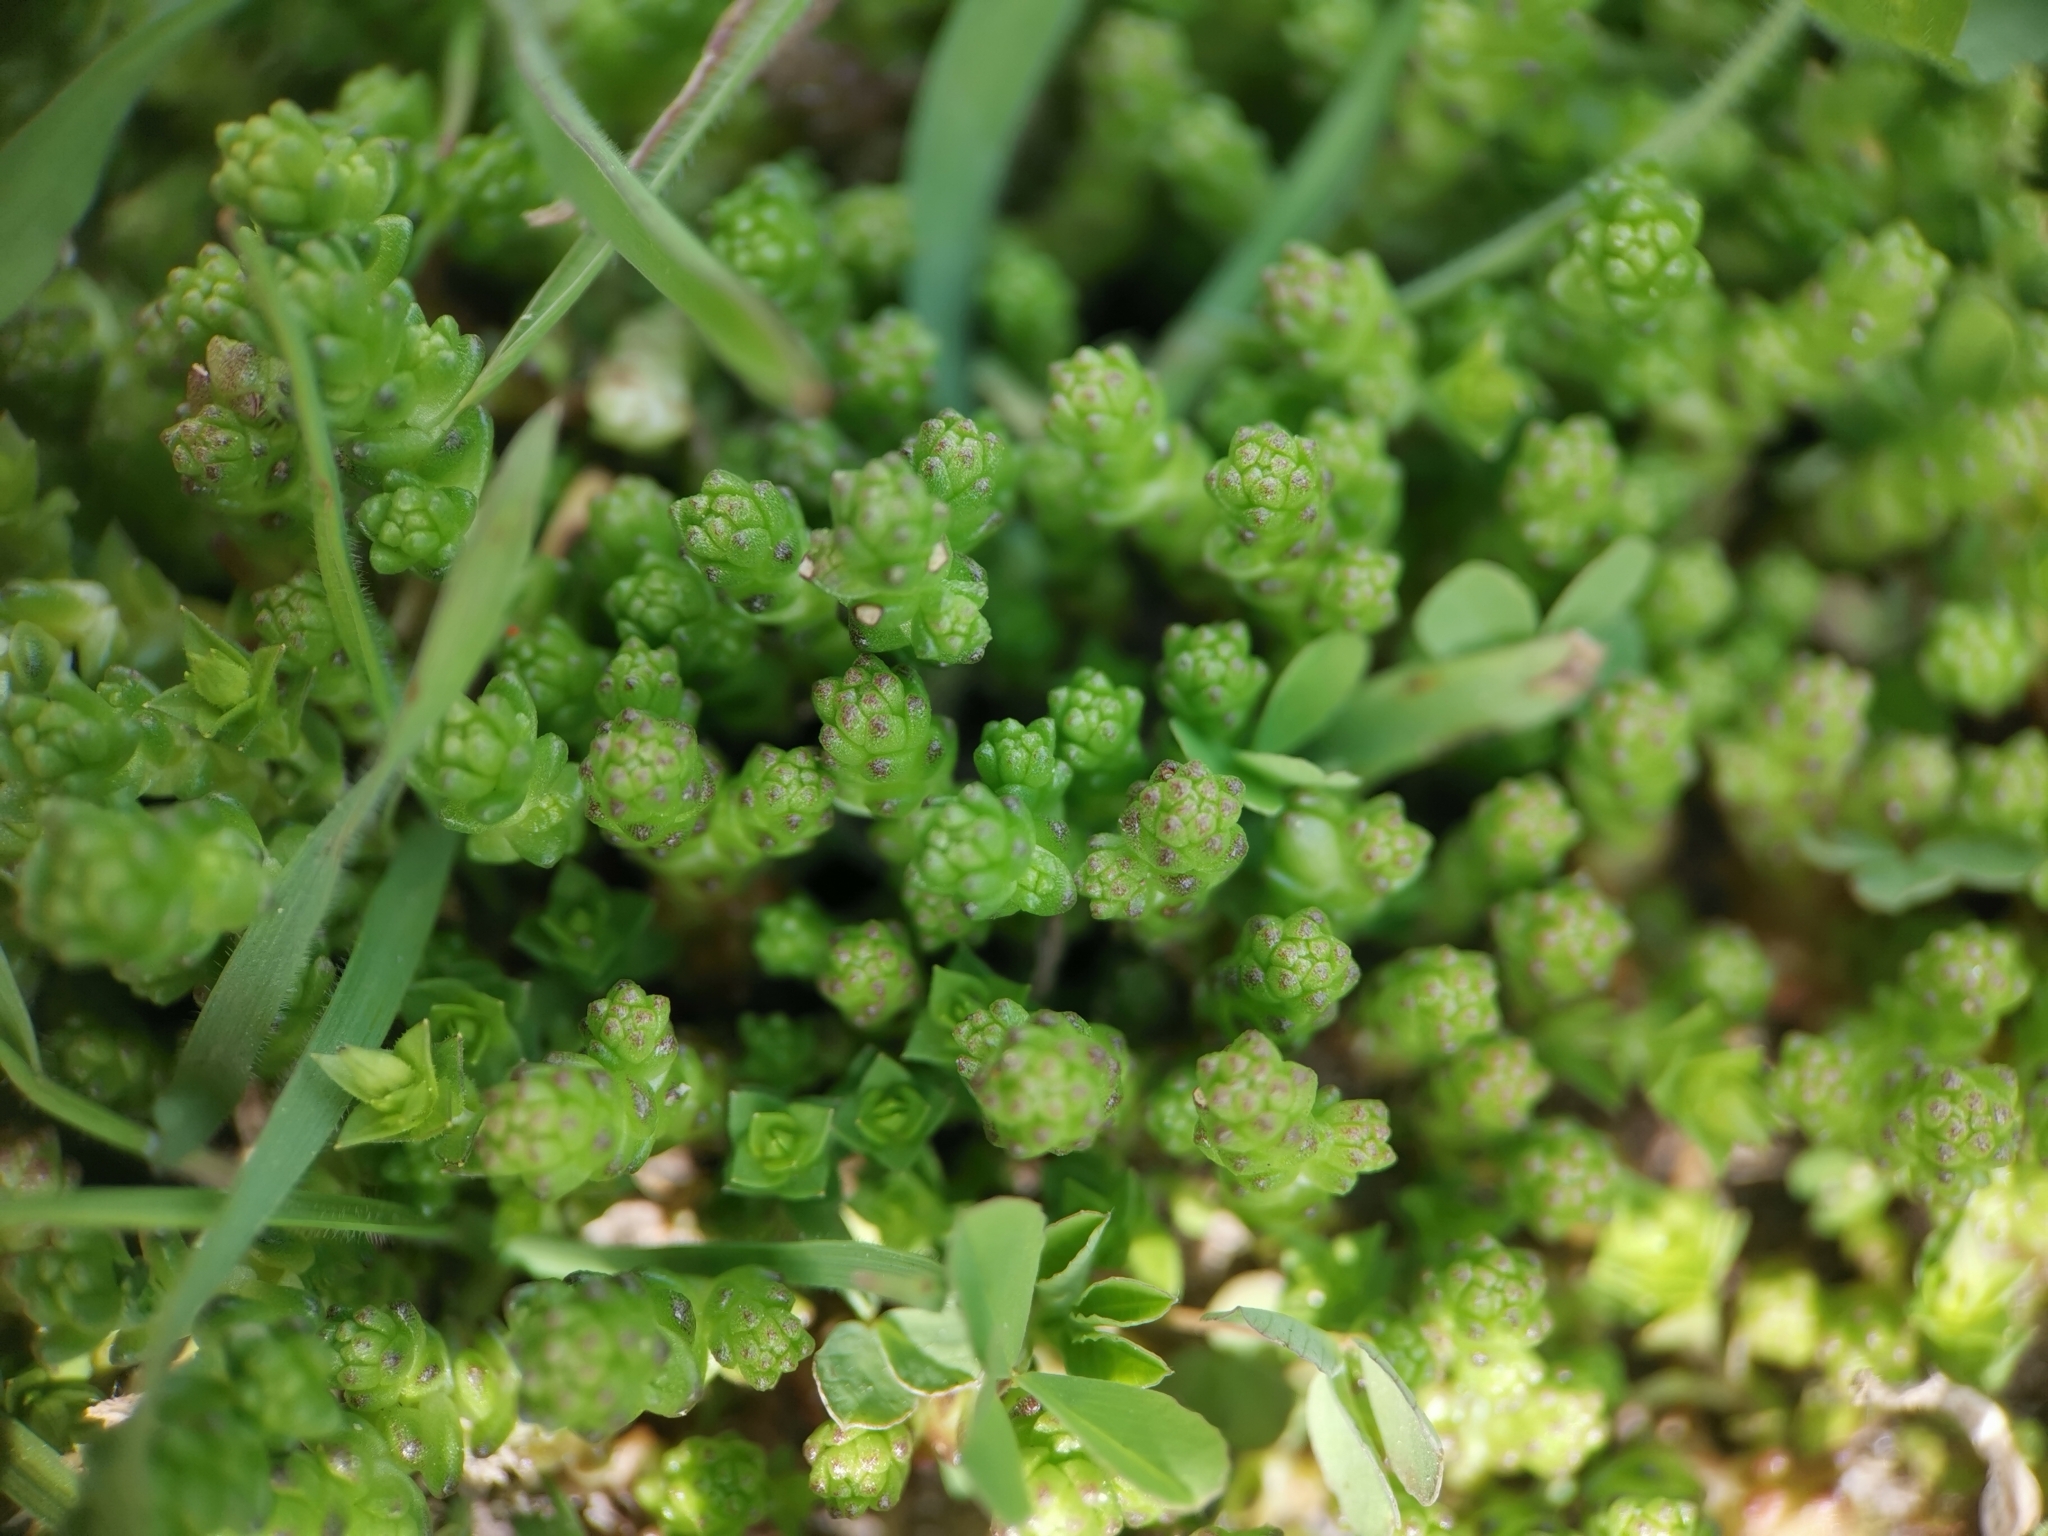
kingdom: Plantae
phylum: Tracheophyta
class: Magnoliopsida
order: Saxifragales
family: Crassulaceae
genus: Sedum
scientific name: Sedum acre
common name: Biting stonecrop
